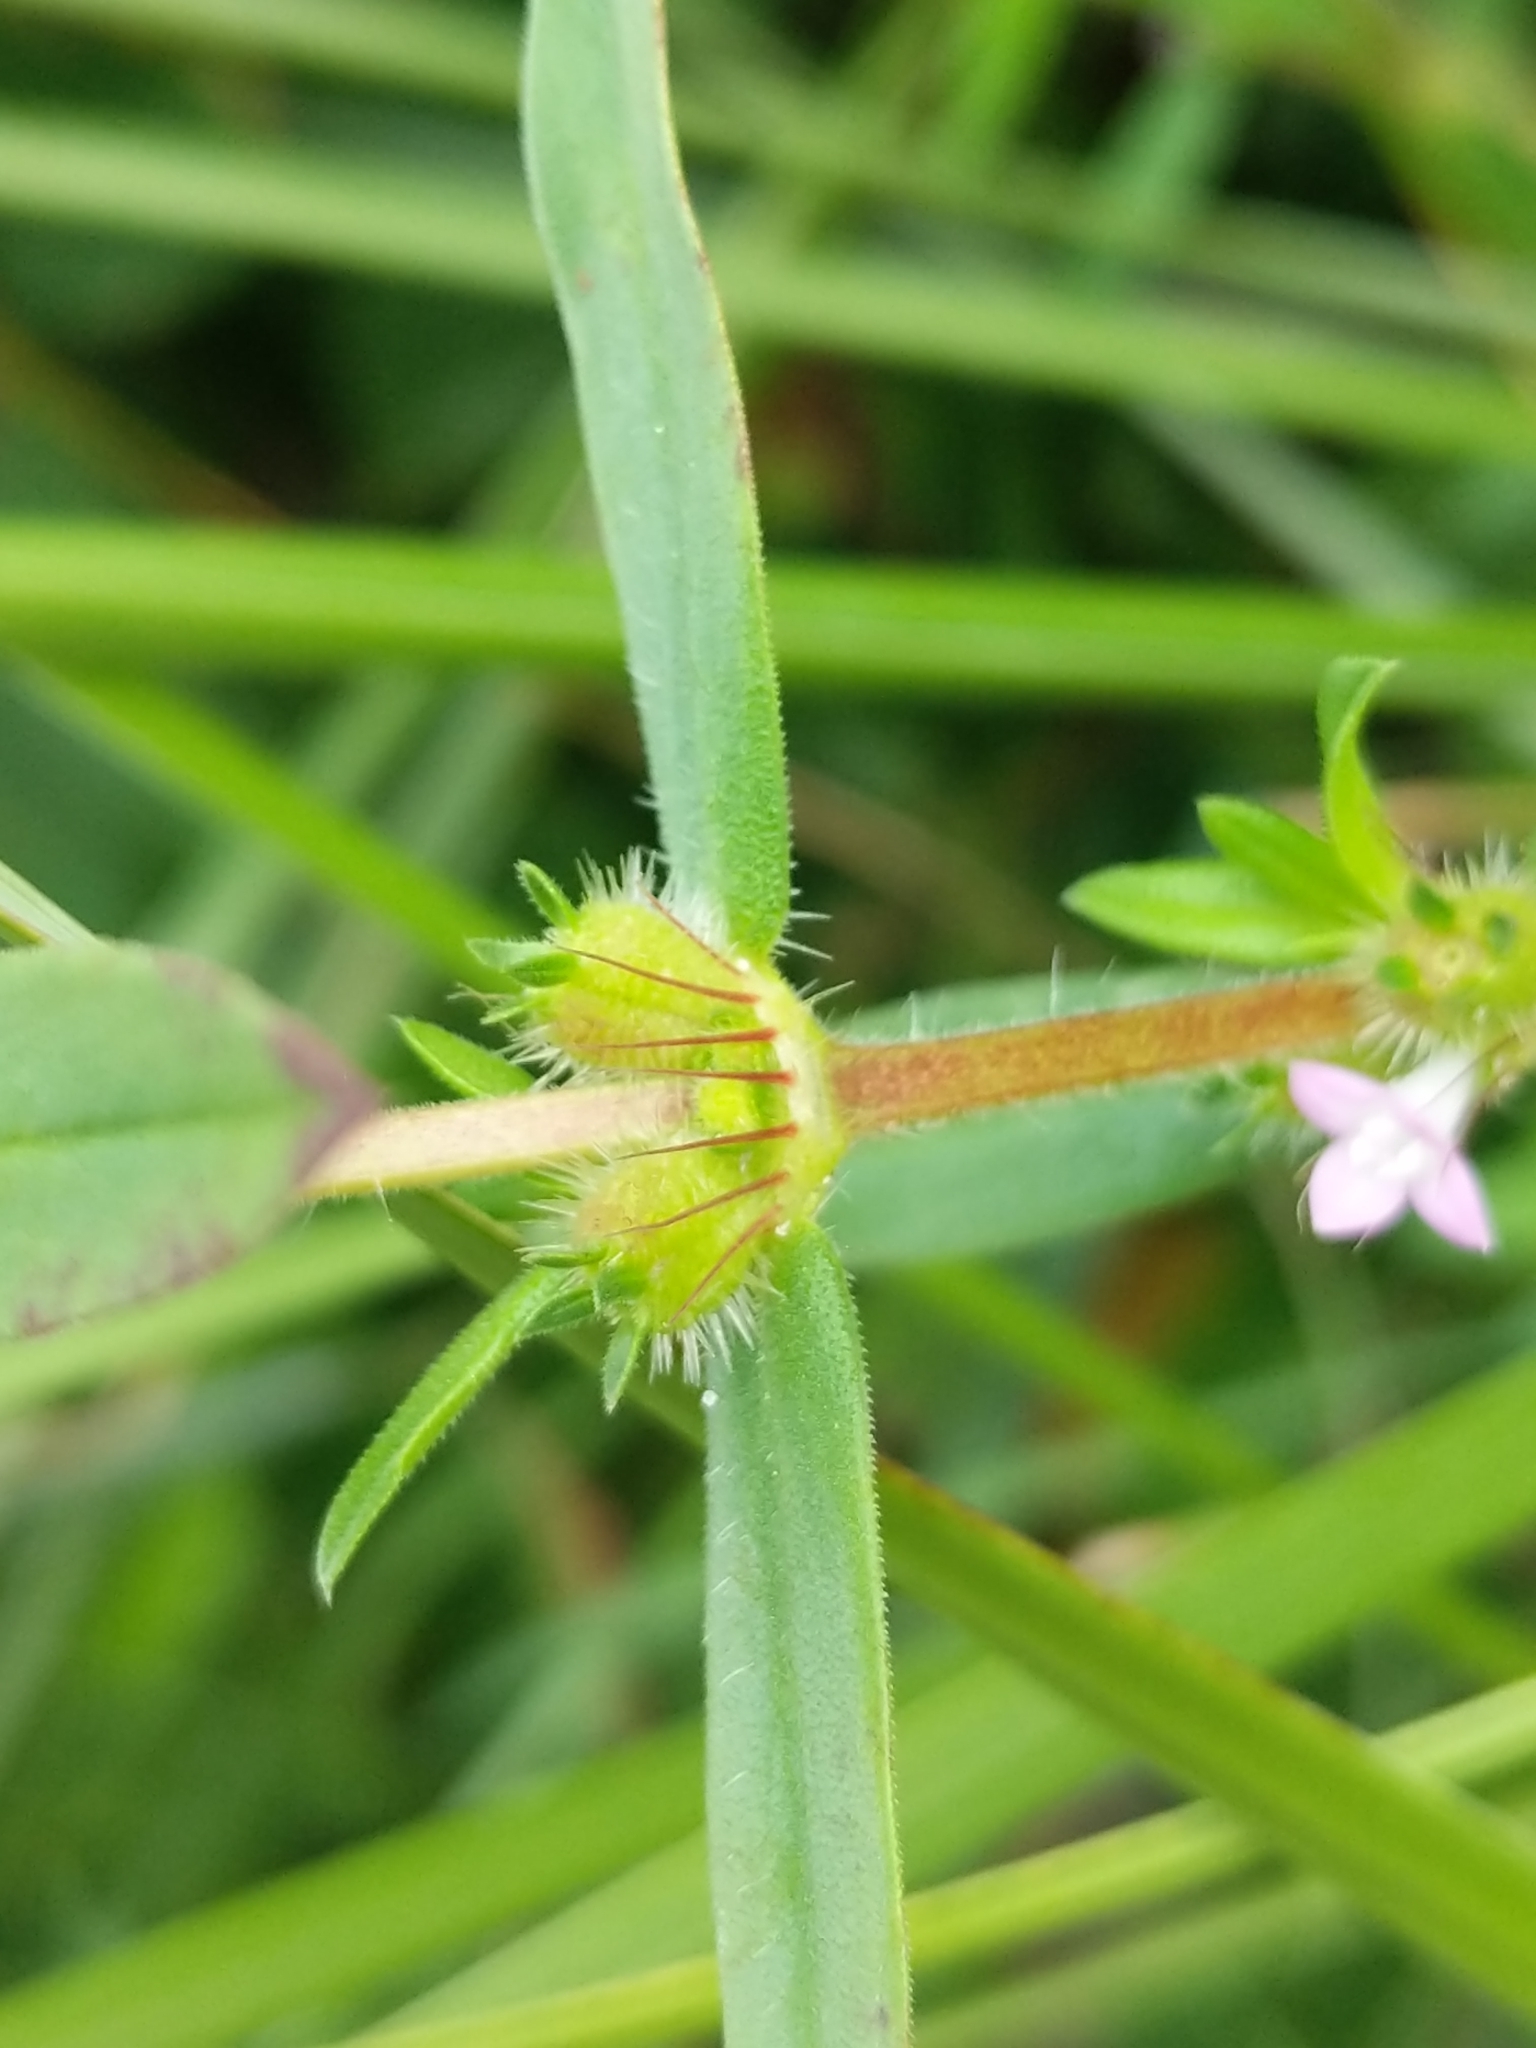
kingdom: Plantae
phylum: Tracheophyta
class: Magnoliopsida
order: Gentianales
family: Rubiaceae
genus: Hexasepalum
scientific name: Hexasepalum teres
